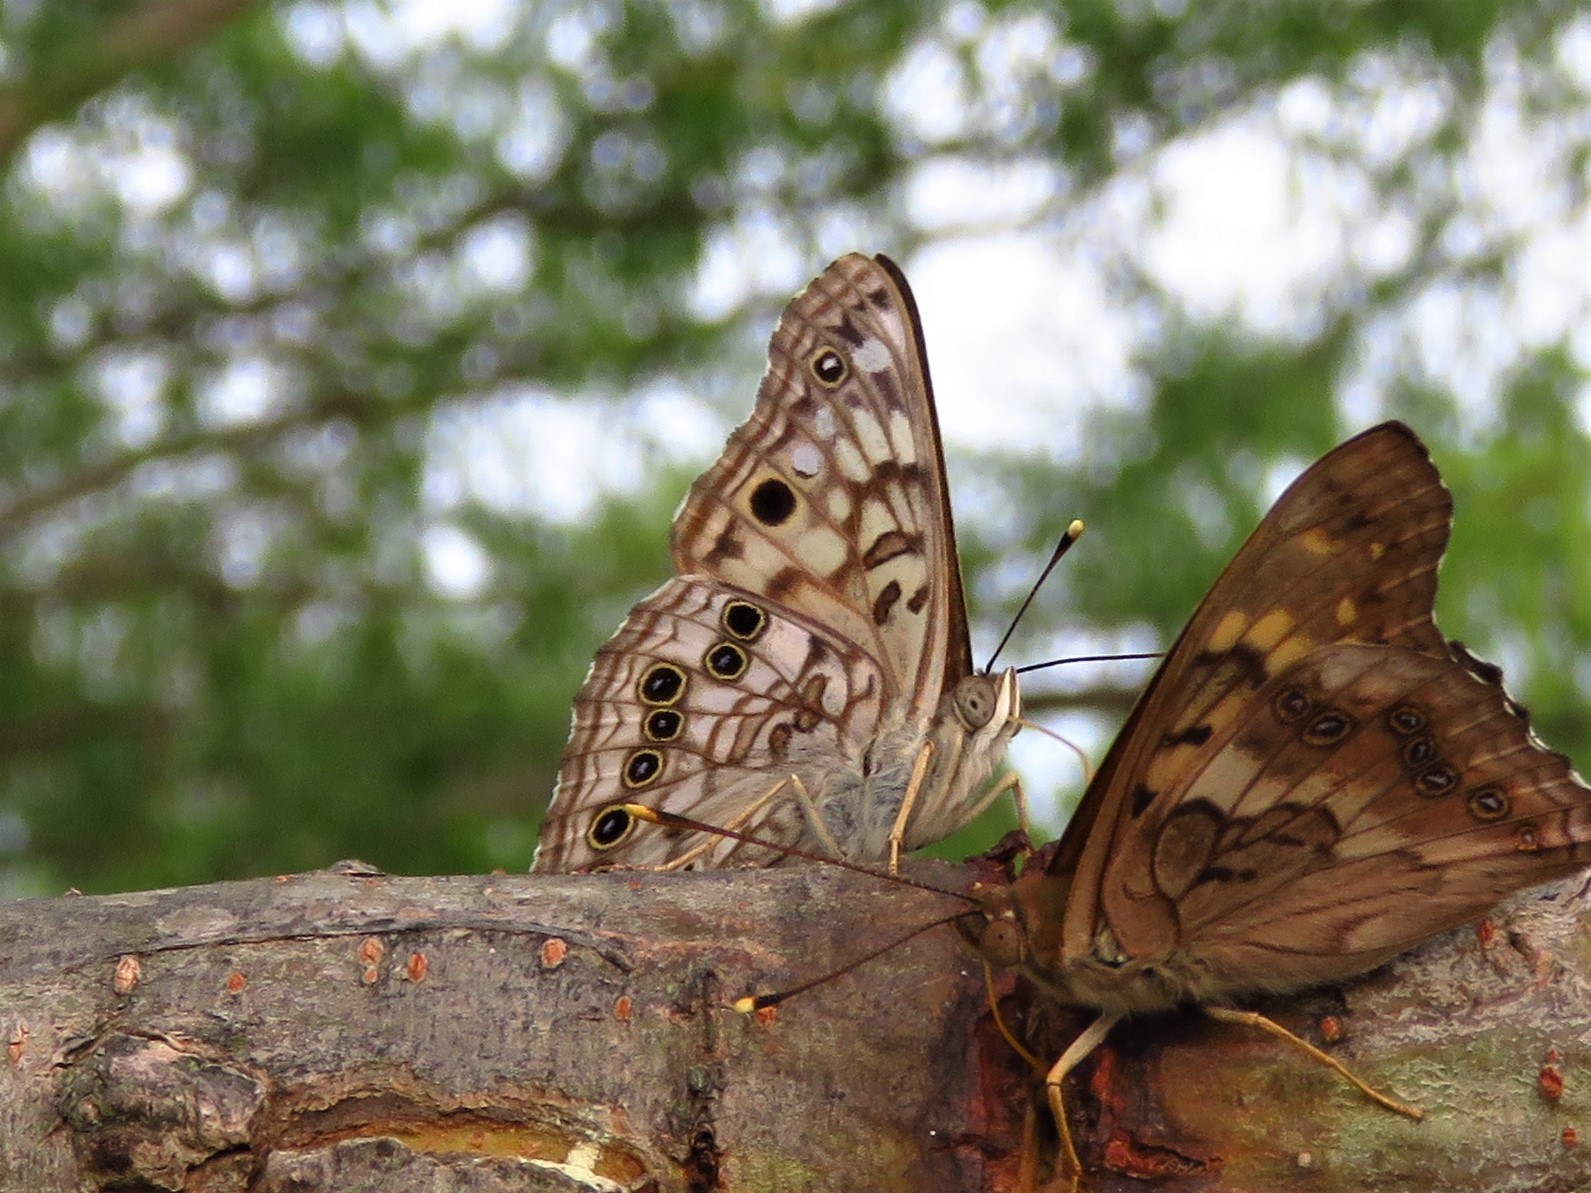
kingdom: Animalia
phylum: Arthropoda
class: Insecta
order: Lepidoptera
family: Nymphalidae
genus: Asterocampa
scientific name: Asterocampa celtis
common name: Hackberry emperor
